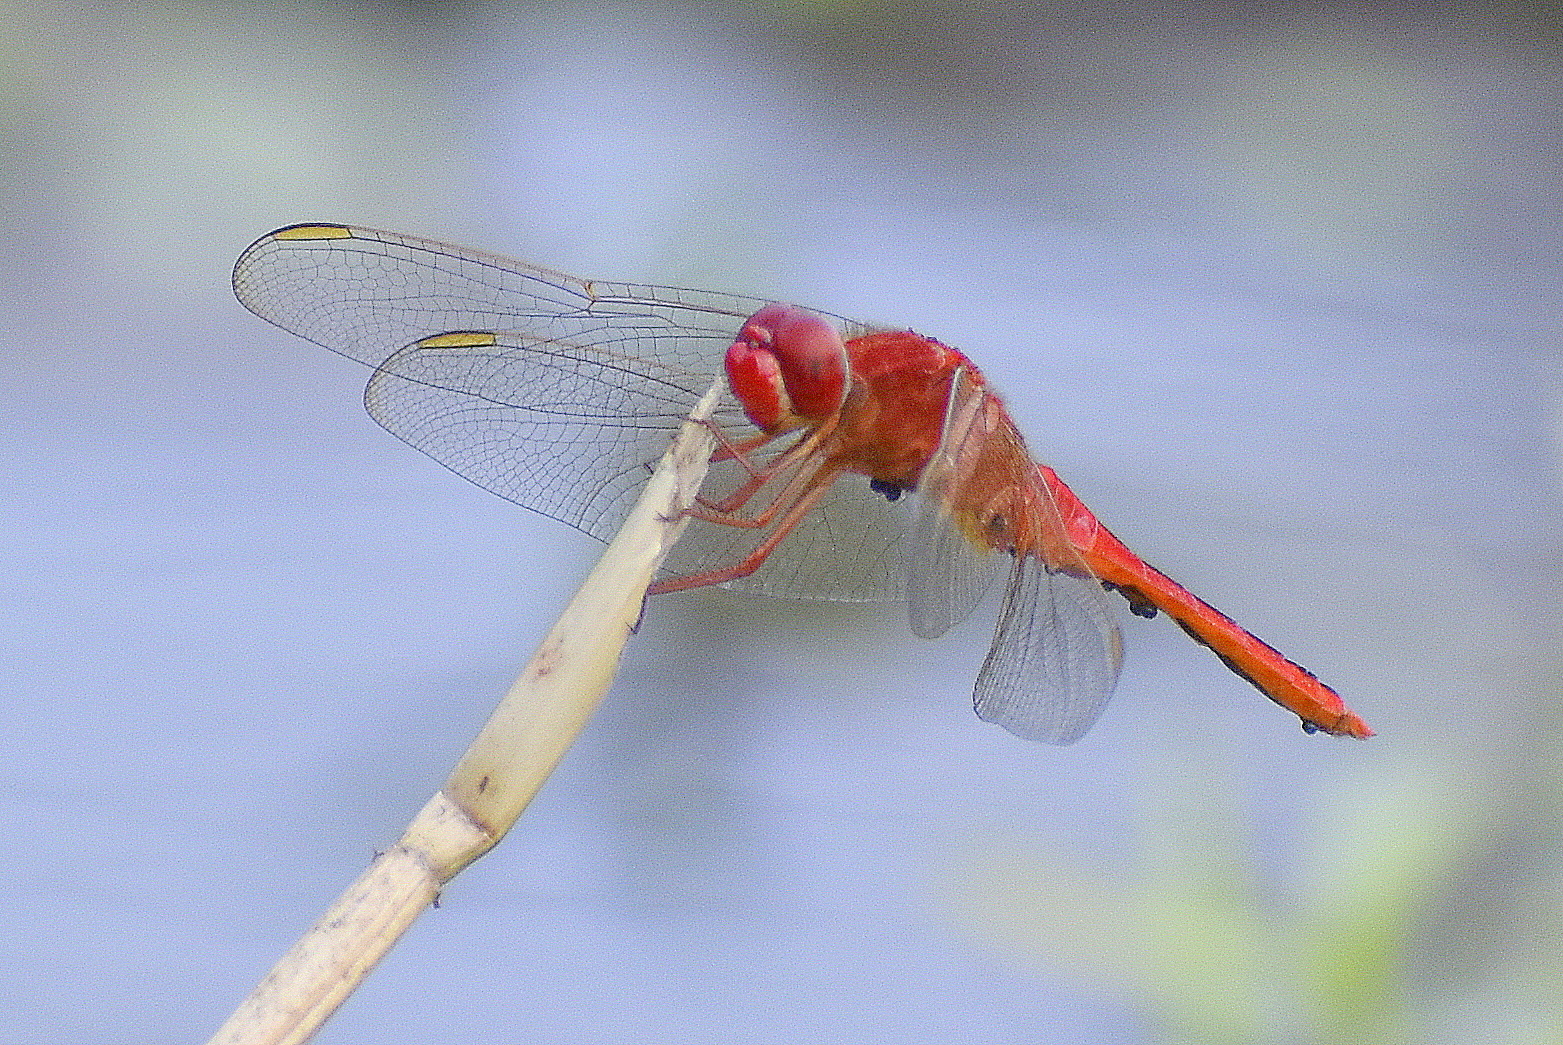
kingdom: Animalia
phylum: Arthropoda
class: Insecta
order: Odonata
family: Libellulidae
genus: Crocothemis
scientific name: Crocothemis servilia
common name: Scarlet skimmer
